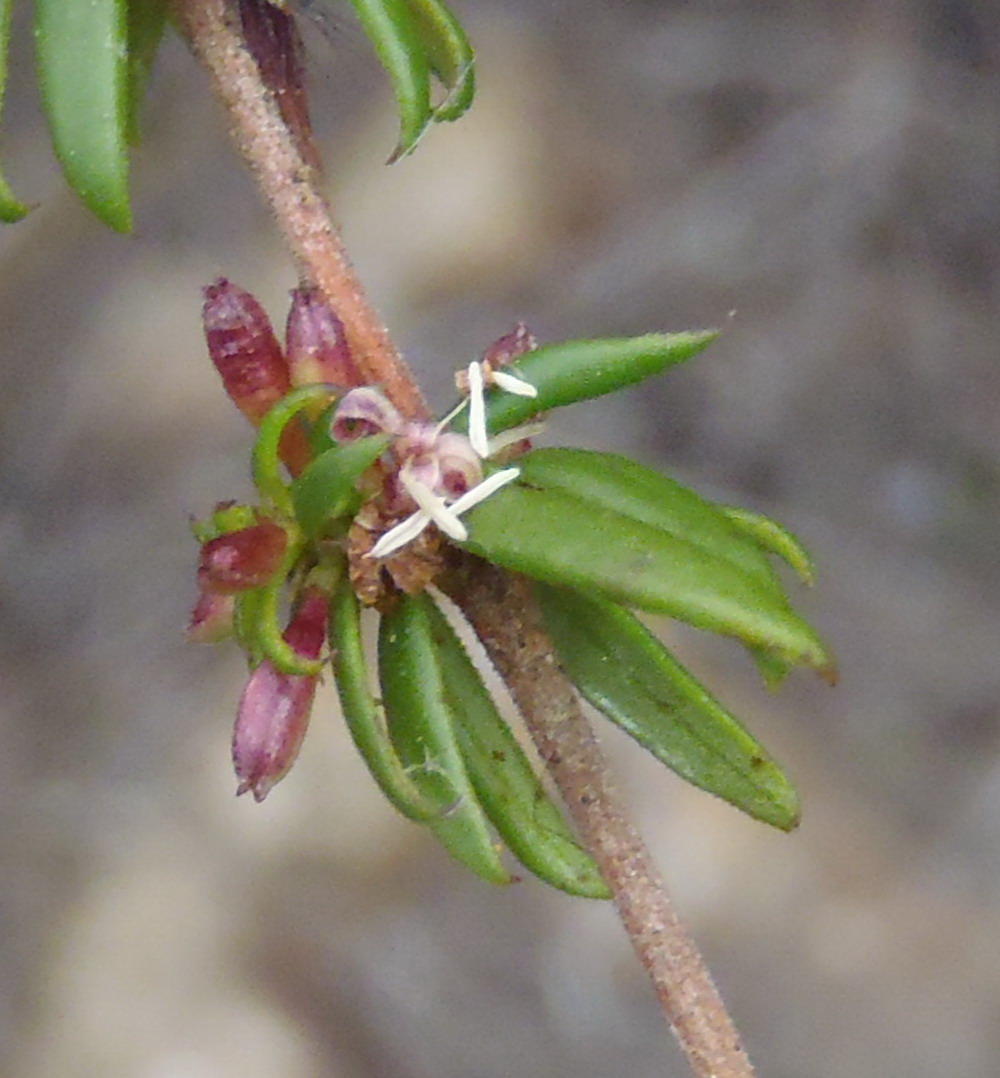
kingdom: Plantae
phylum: Tracheophyta
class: Magnoliopsida
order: Gentianales
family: Rubiaceae
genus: Anthospermum
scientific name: Anthospermum spathulatum
